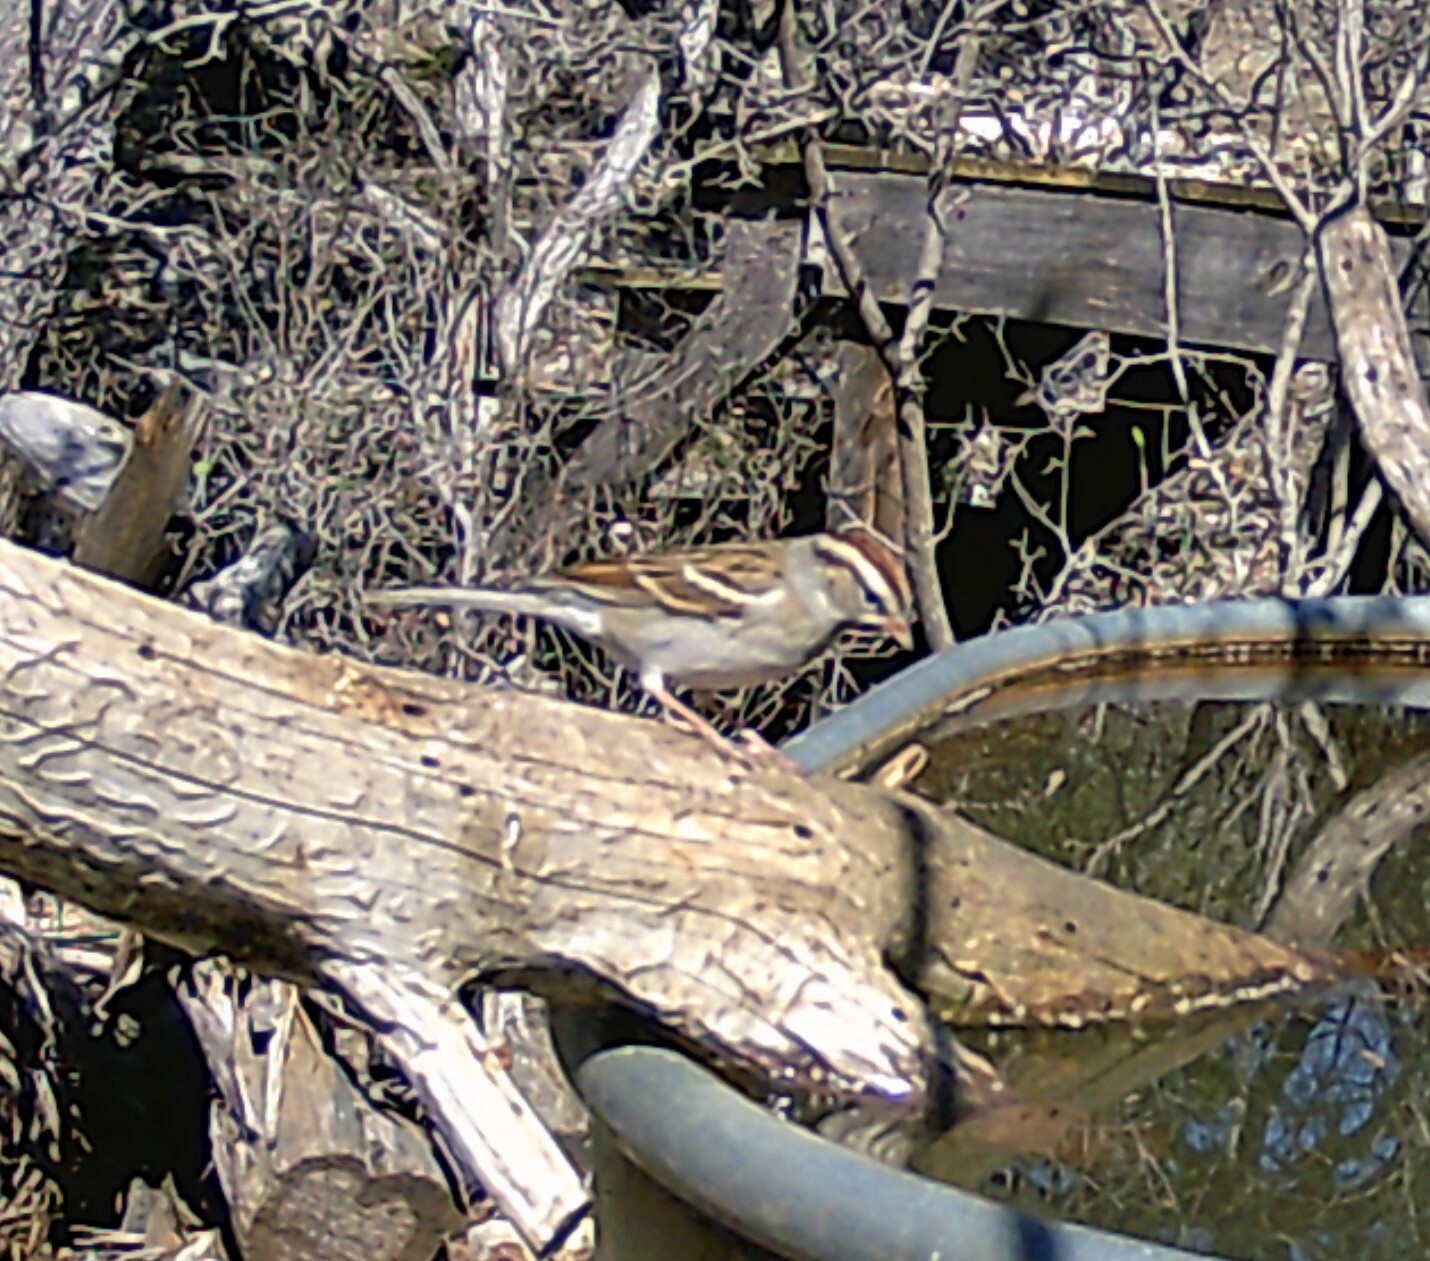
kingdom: Animalia
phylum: Chordata
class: Aves
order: Passeriformes
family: Passerellidae
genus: Spizella
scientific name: Spizella passerina
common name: Chipping sparrow
